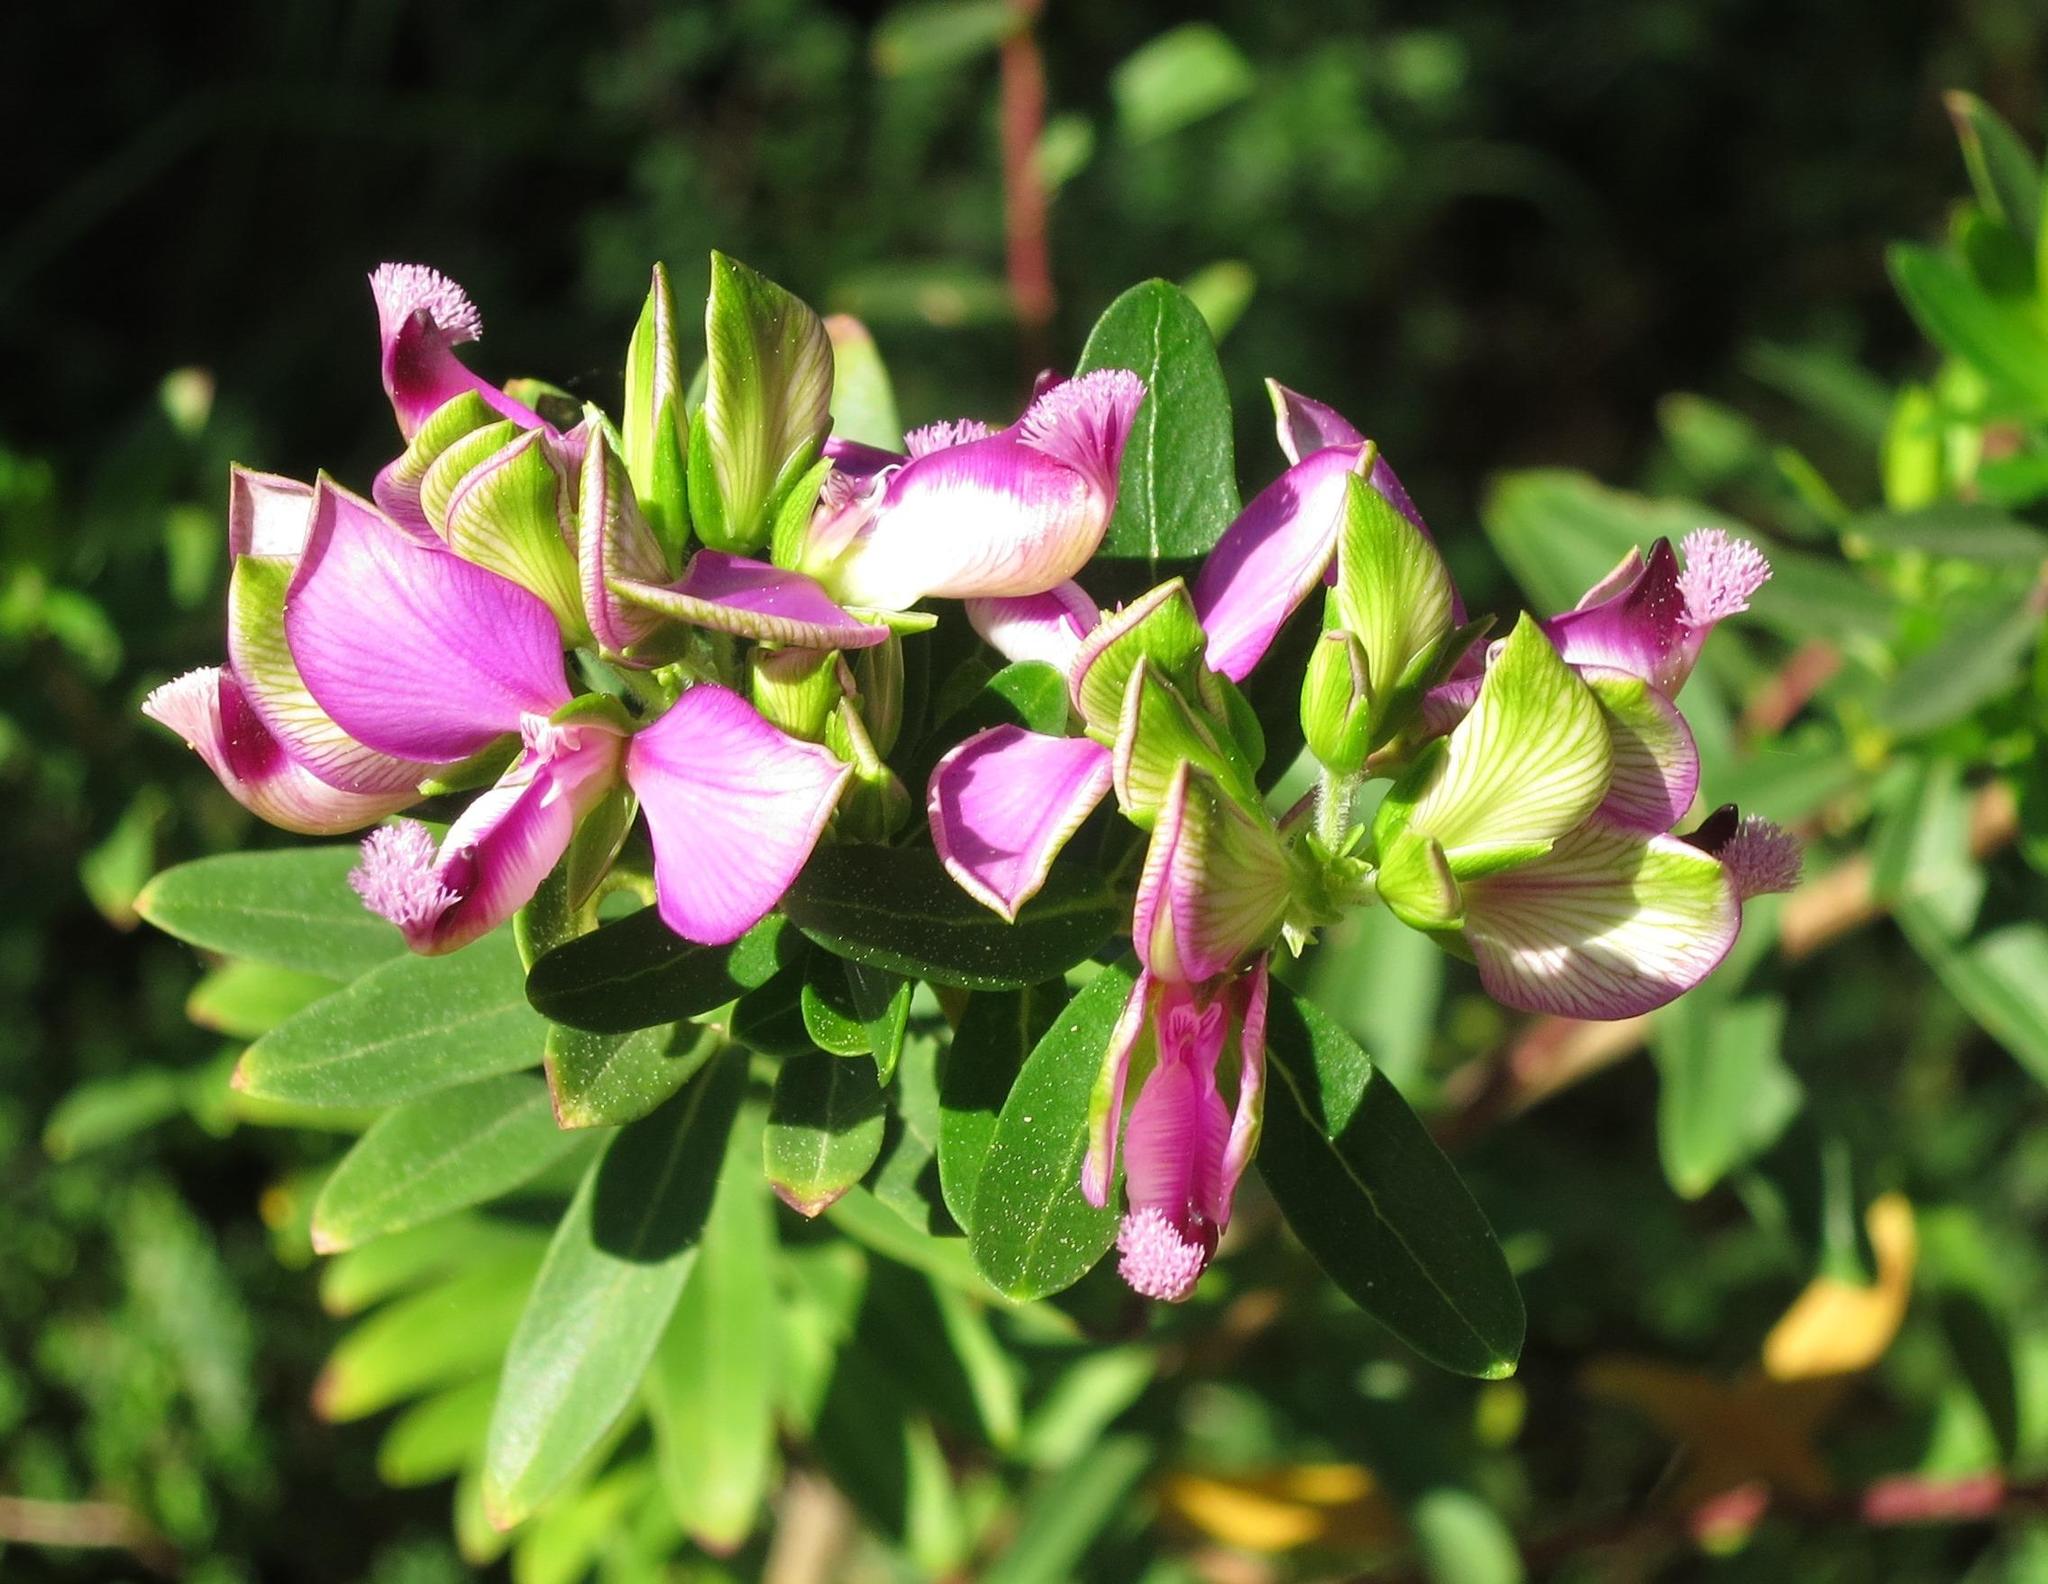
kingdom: Plantae
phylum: Tracheophyta
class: Magnoliopsida
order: Fabales
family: Polygalaceae
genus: Polygala
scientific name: Polygala myrtifolia
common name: Myrtle-leaf milkwort
